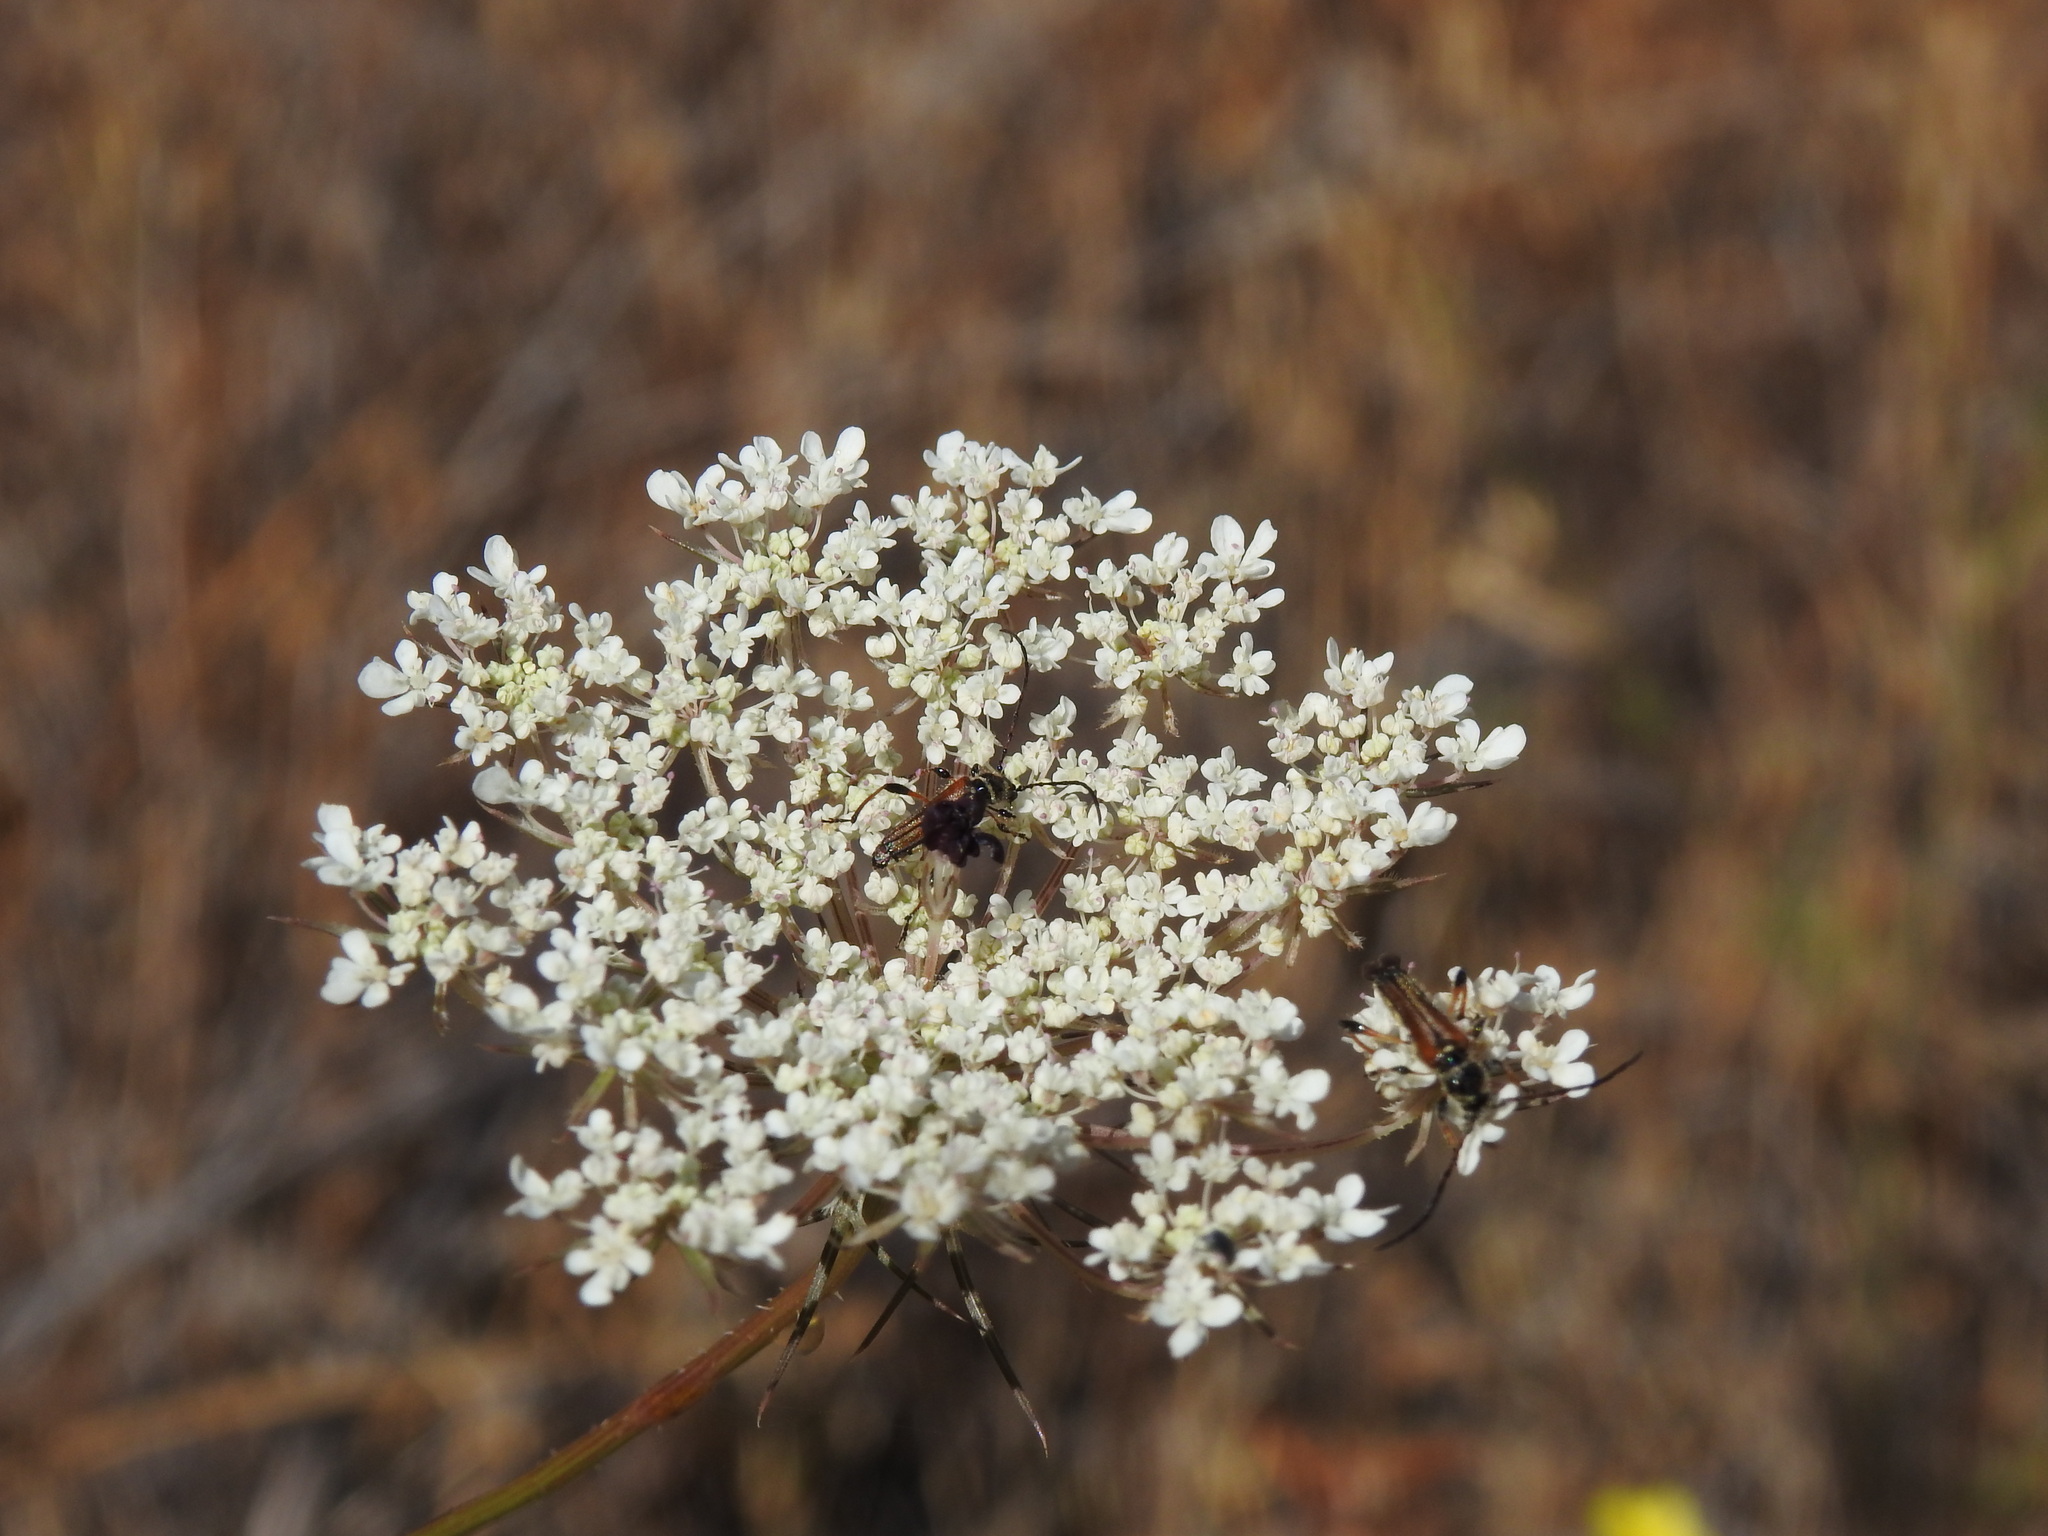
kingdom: Plantae
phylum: Tracheophyta
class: Magnoliopsida
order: Apiales
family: Apiaceae
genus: Daucus
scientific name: Daucus carota
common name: Wild carrot
